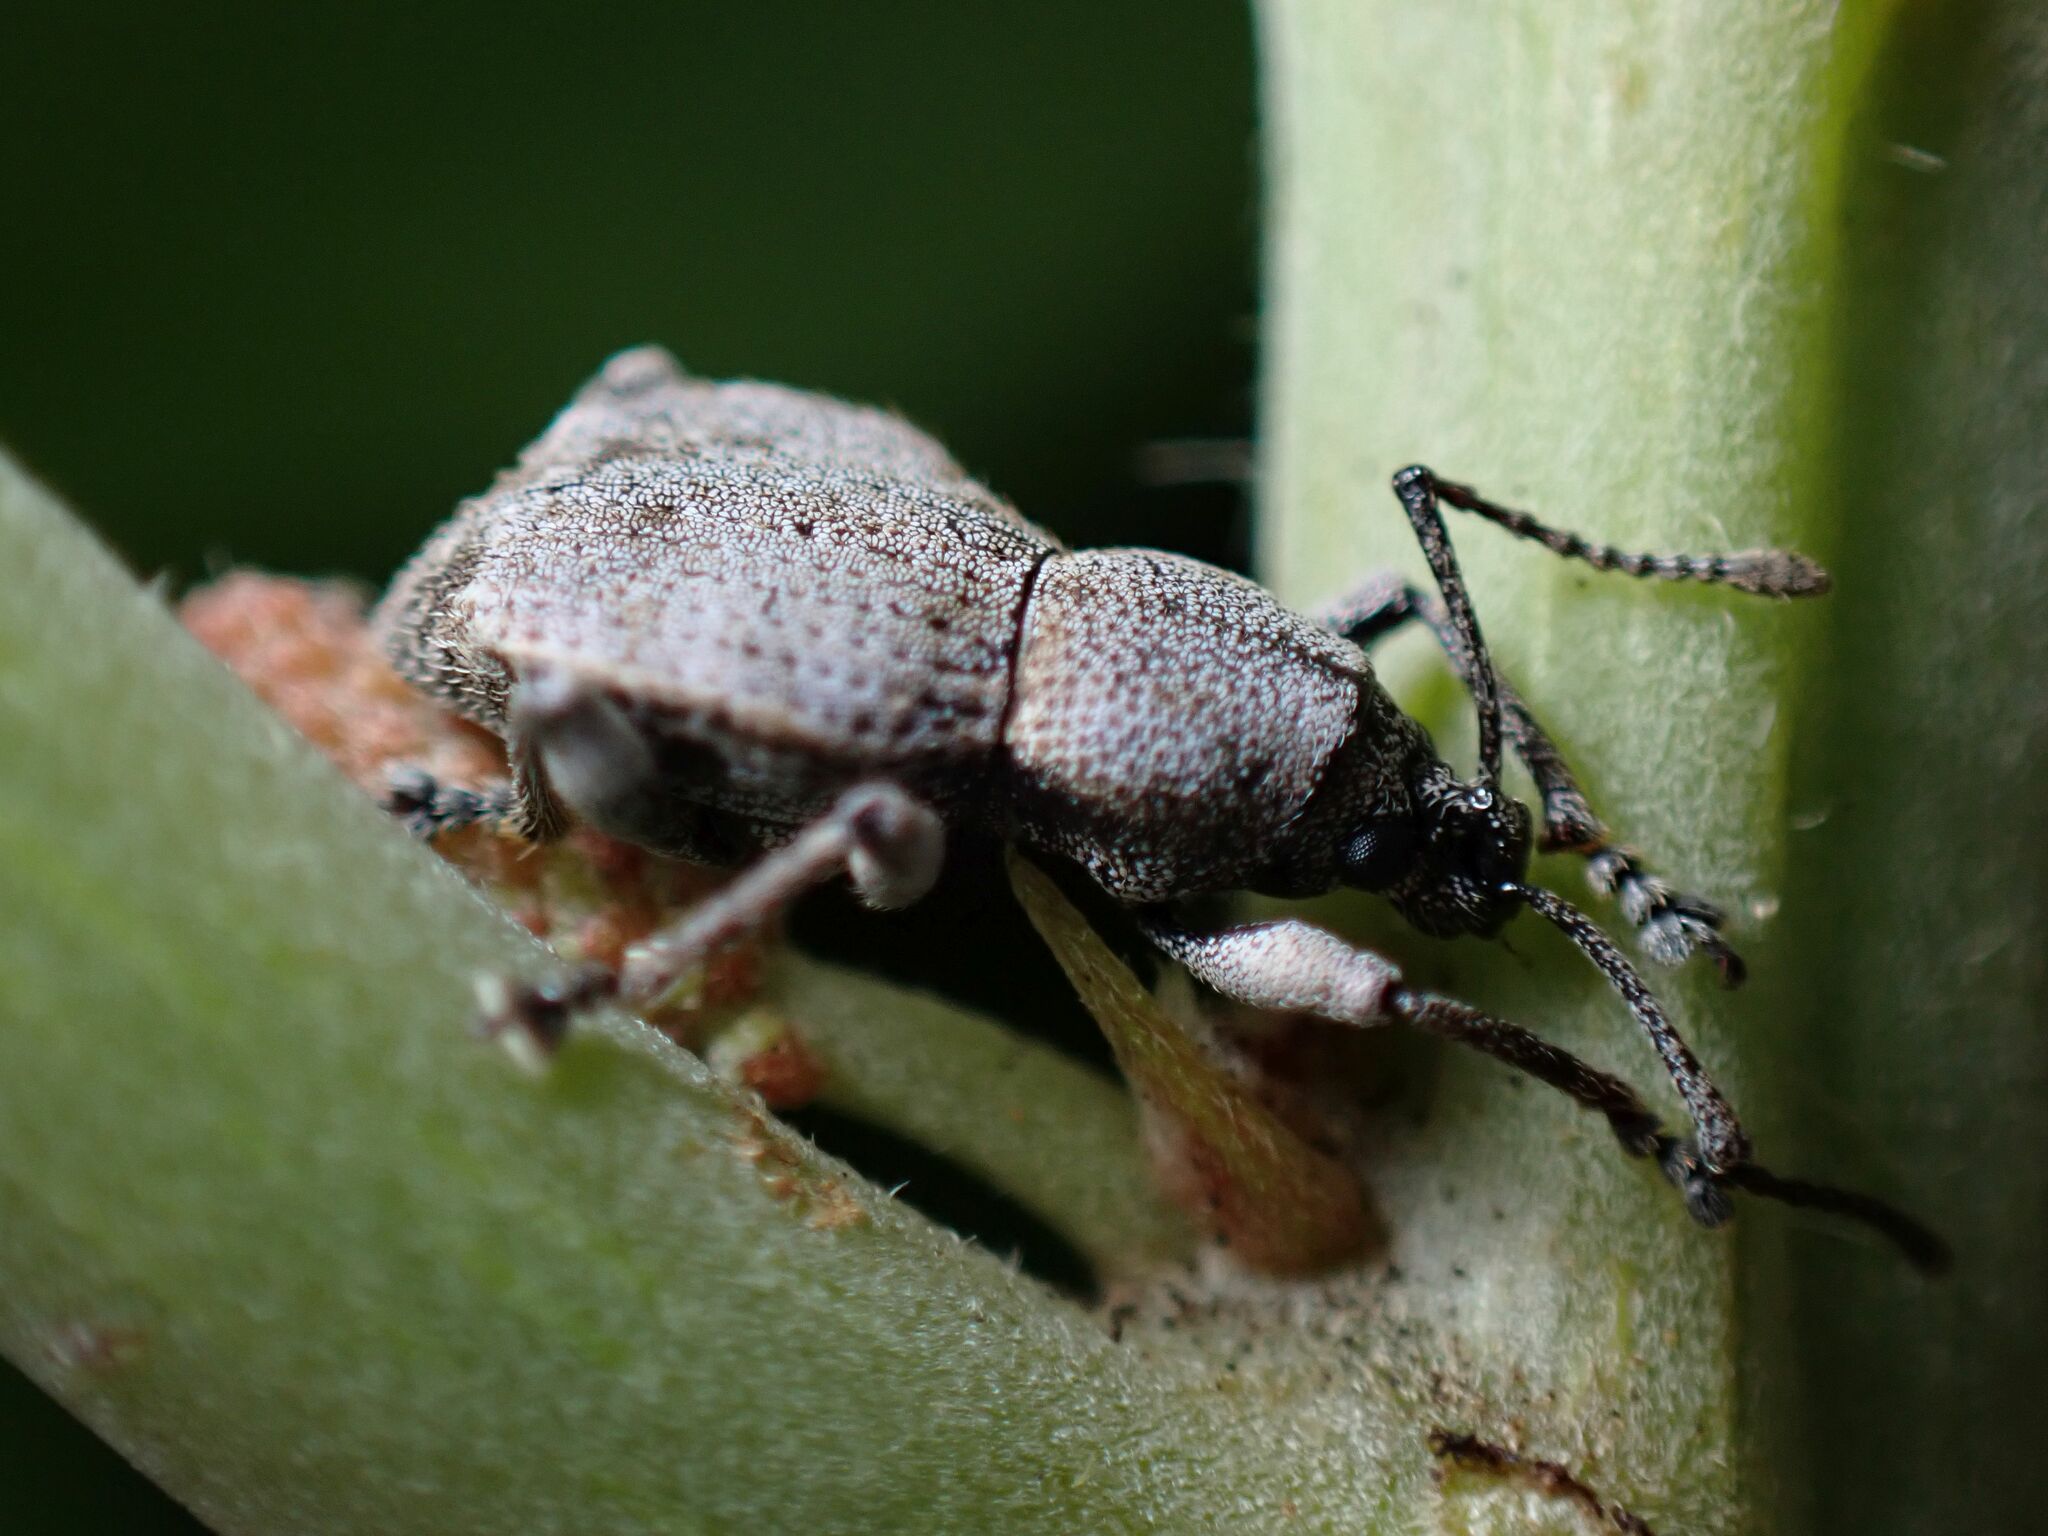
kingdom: Animalia
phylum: Arthropoda
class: Insecta
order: Coleoptera
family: Curculionidae
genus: Platysimus
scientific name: Platysimus septentrionalis
